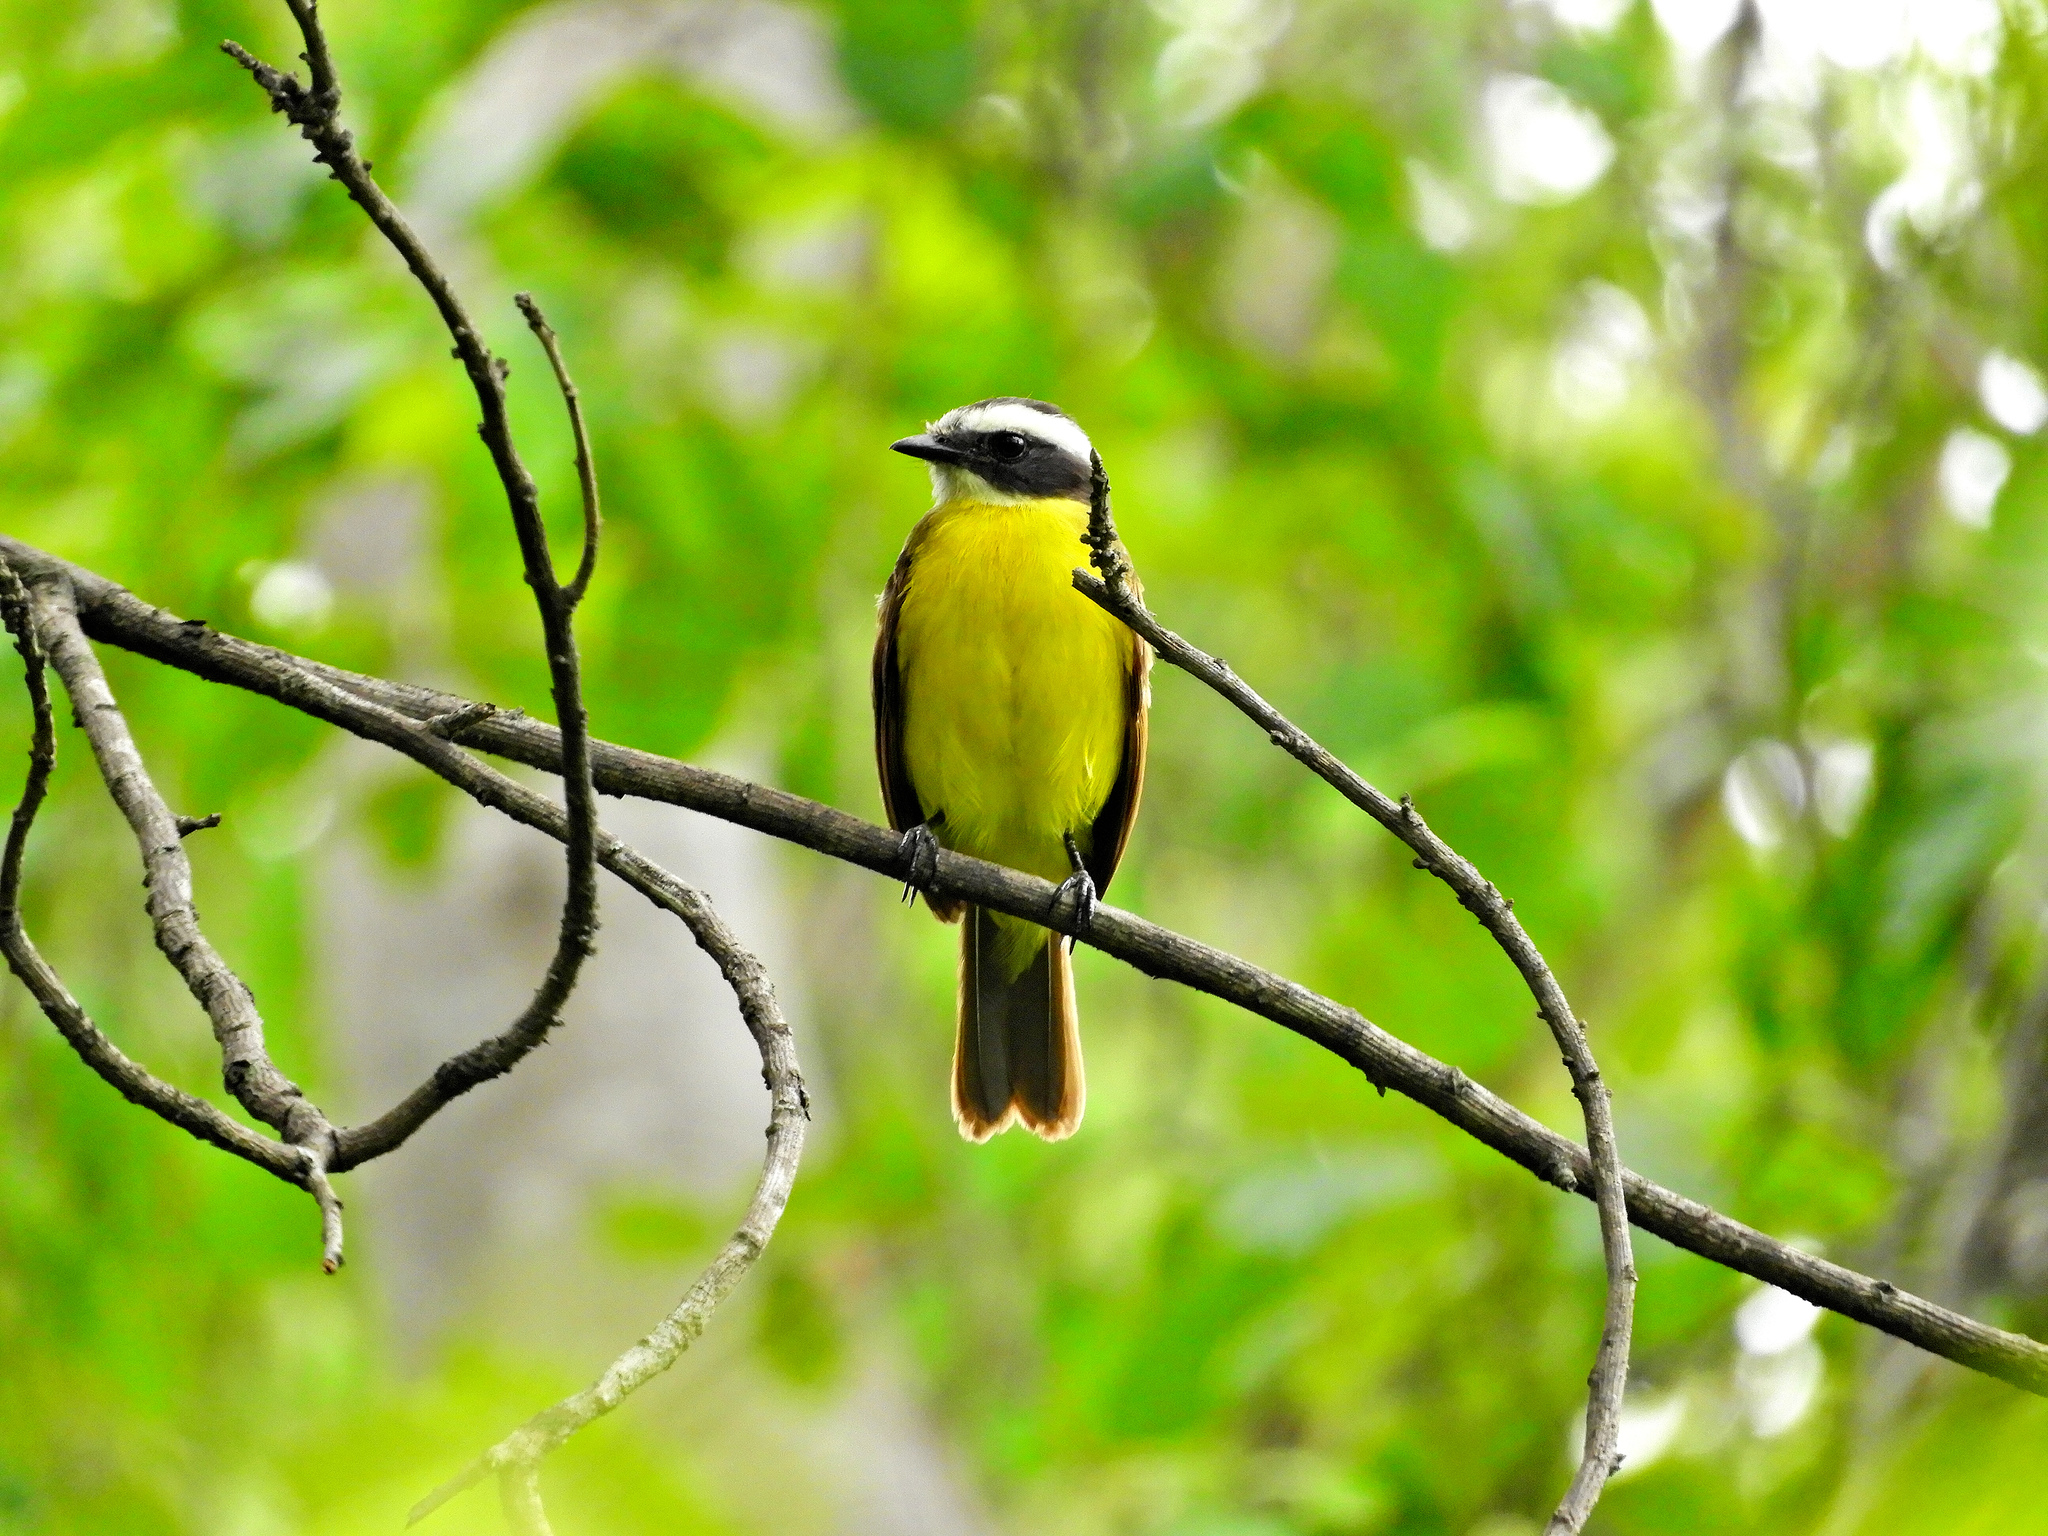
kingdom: Animalia
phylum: Chordata
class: Aves
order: Passeriformes
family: Tyrannidae
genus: Myiozetetes
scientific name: Myiozetetes similis
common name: Social flycatcher
